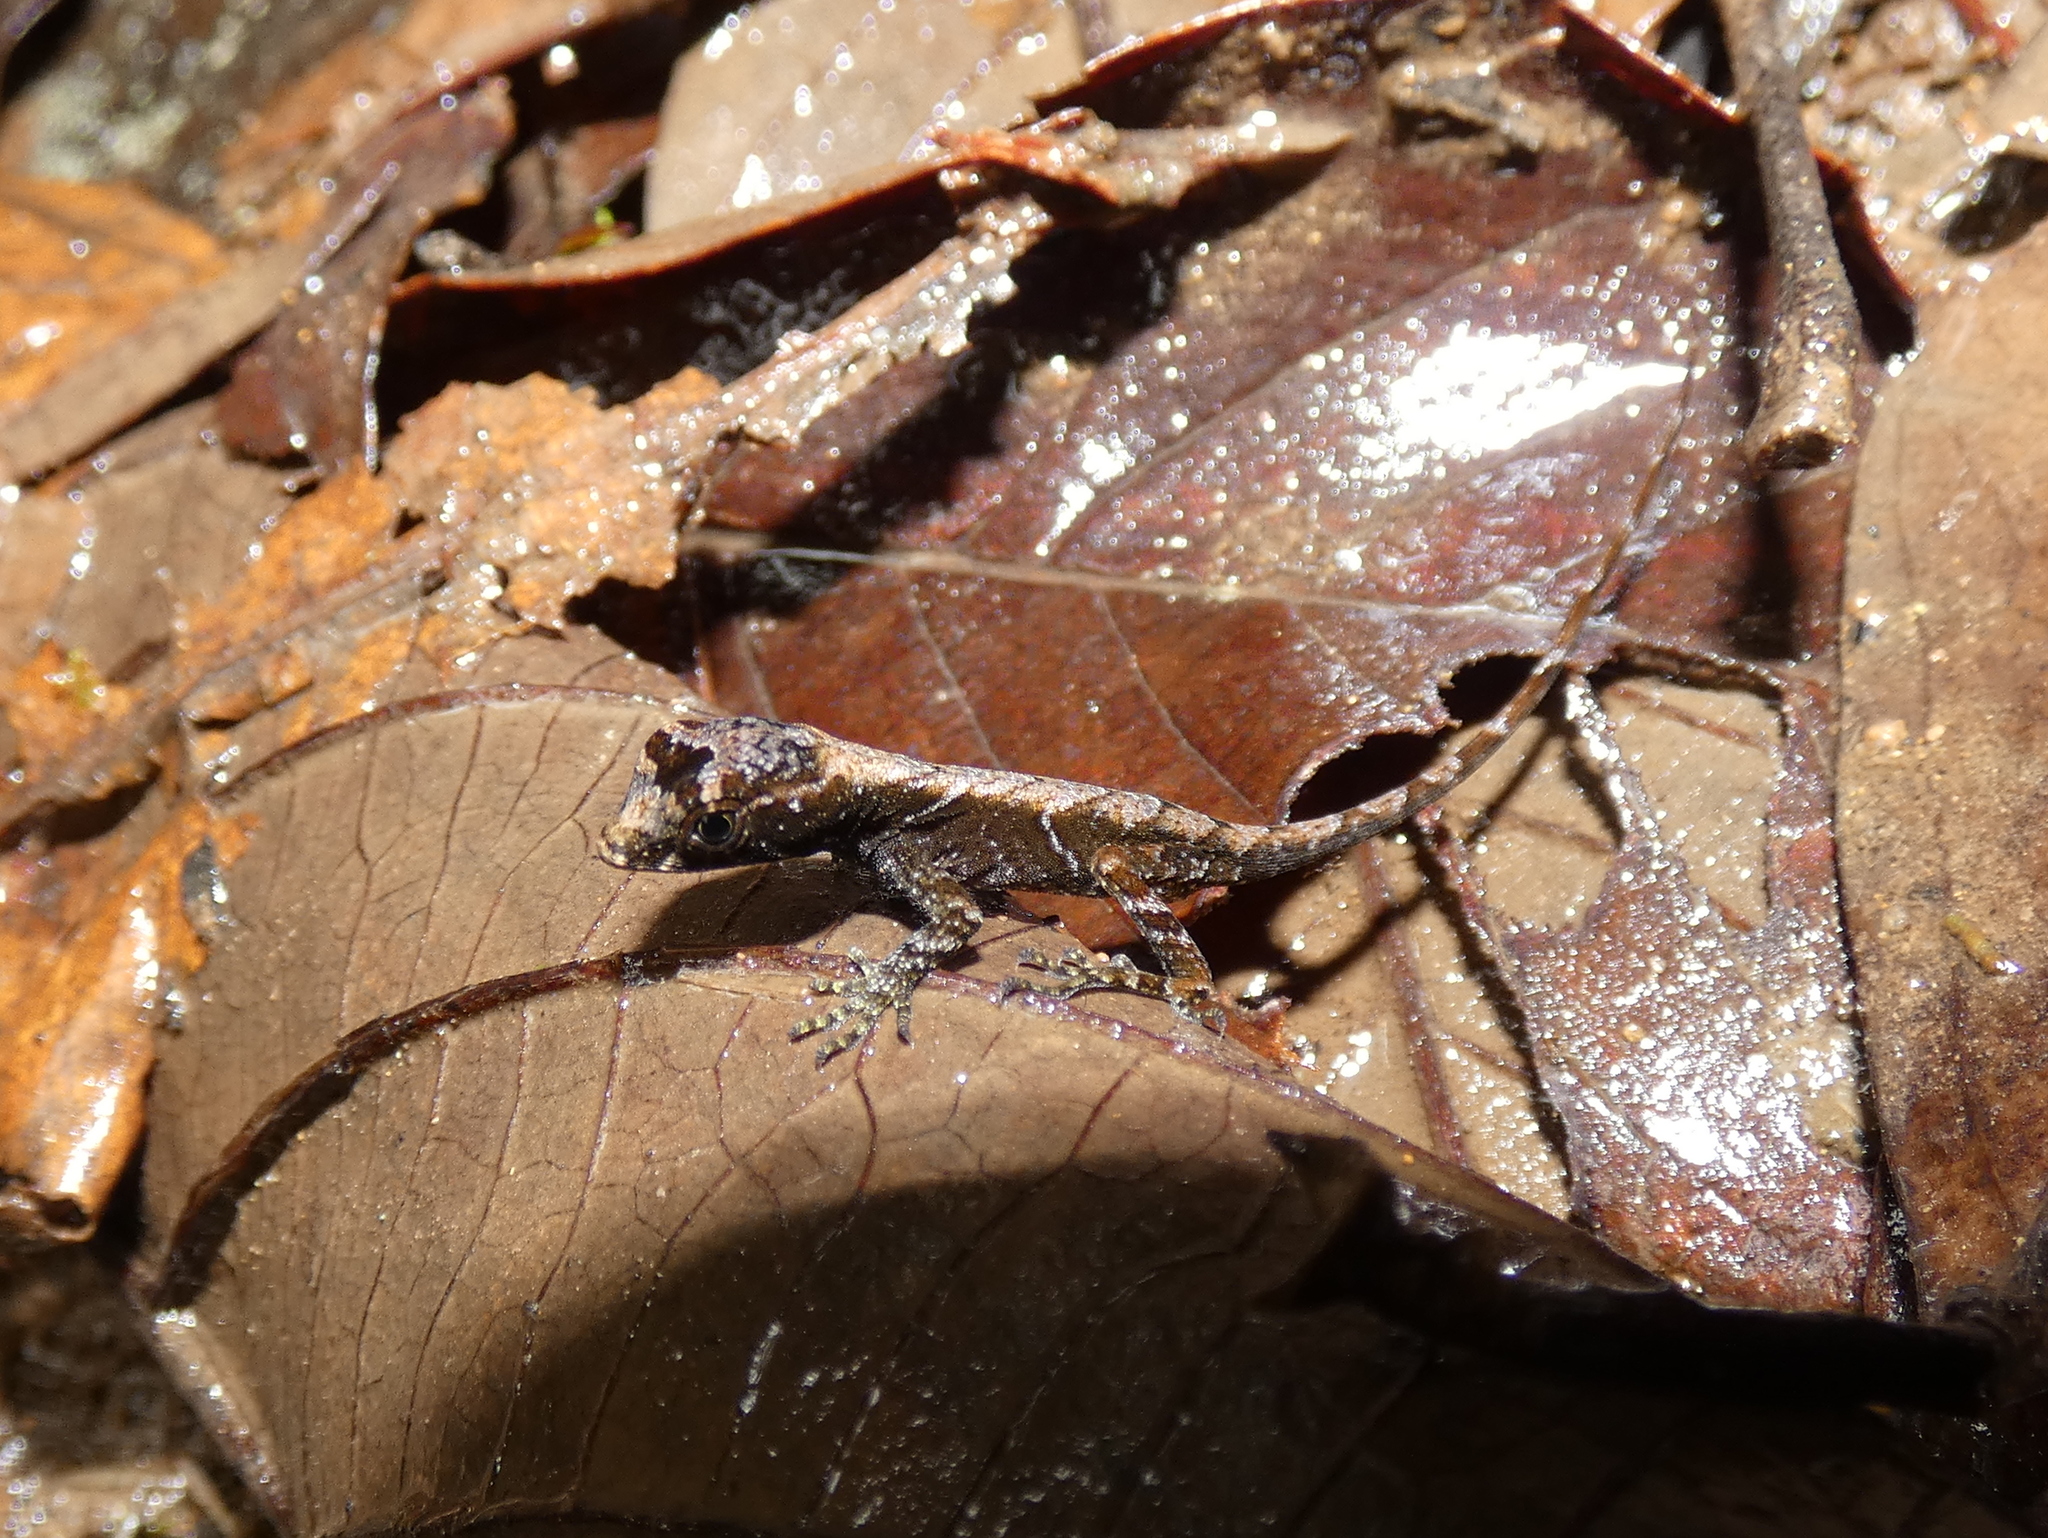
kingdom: Animalia
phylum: Chordata
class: Squamata
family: Dactyloidae
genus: Anolis
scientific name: Anolis humilis
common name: Humble anole
